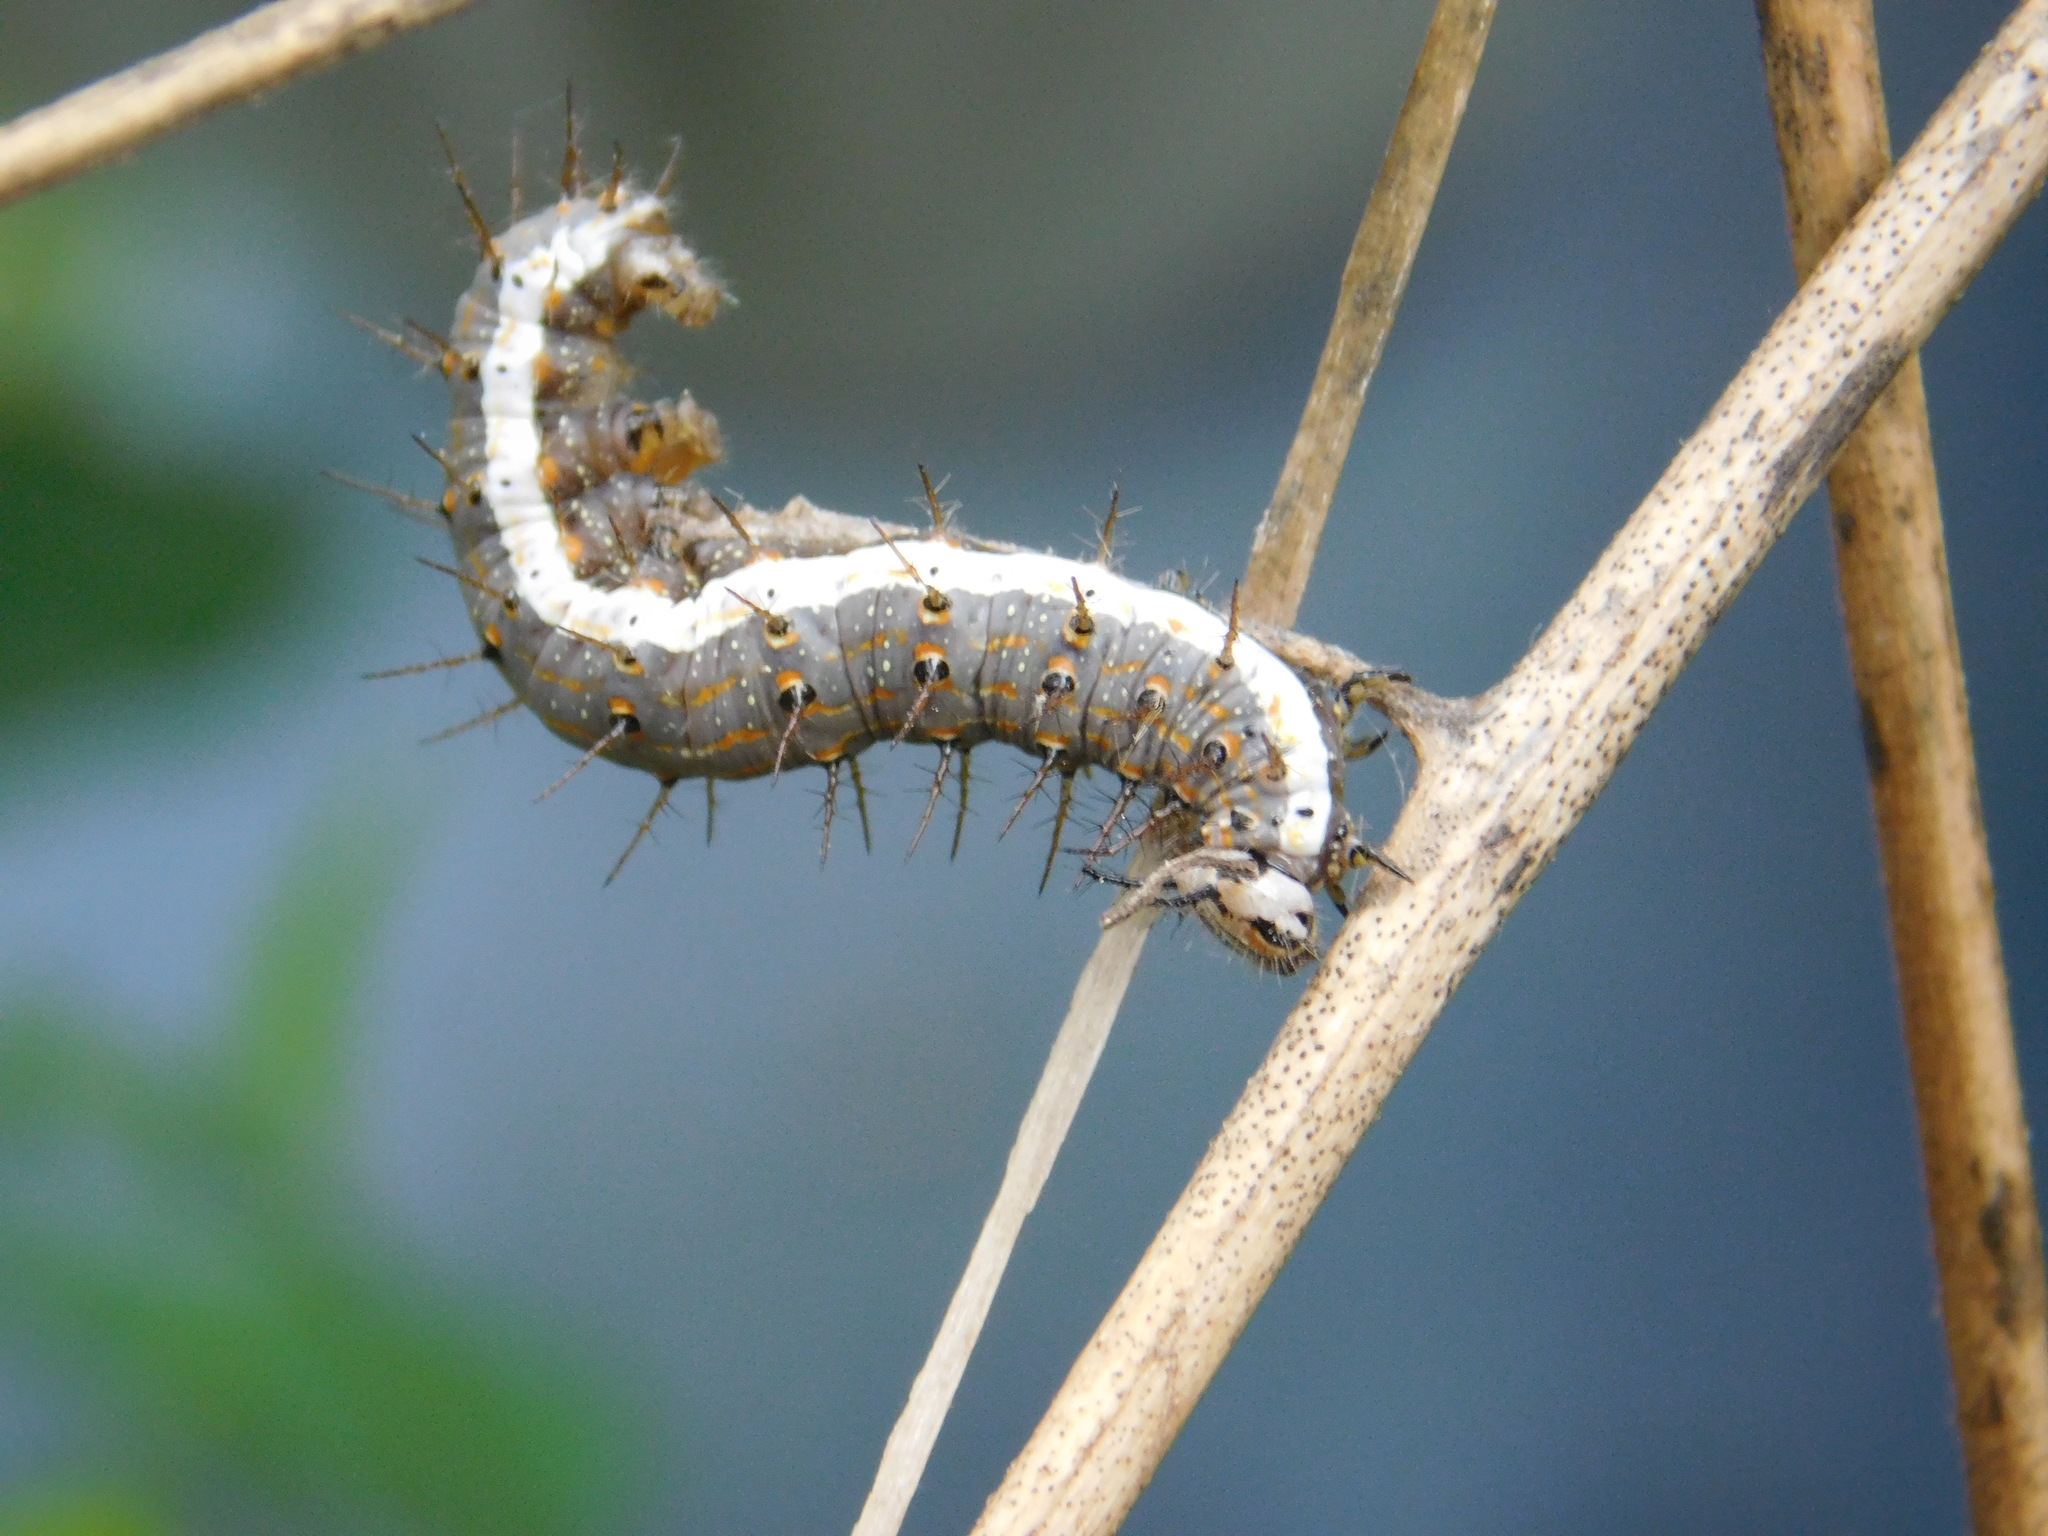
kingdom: Animalia
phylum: Arthropoda
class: Insecta
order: Lepidoptera
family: Nymphalidae
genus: Dione
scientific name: Dione vanillae
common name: Gulf fritillary
